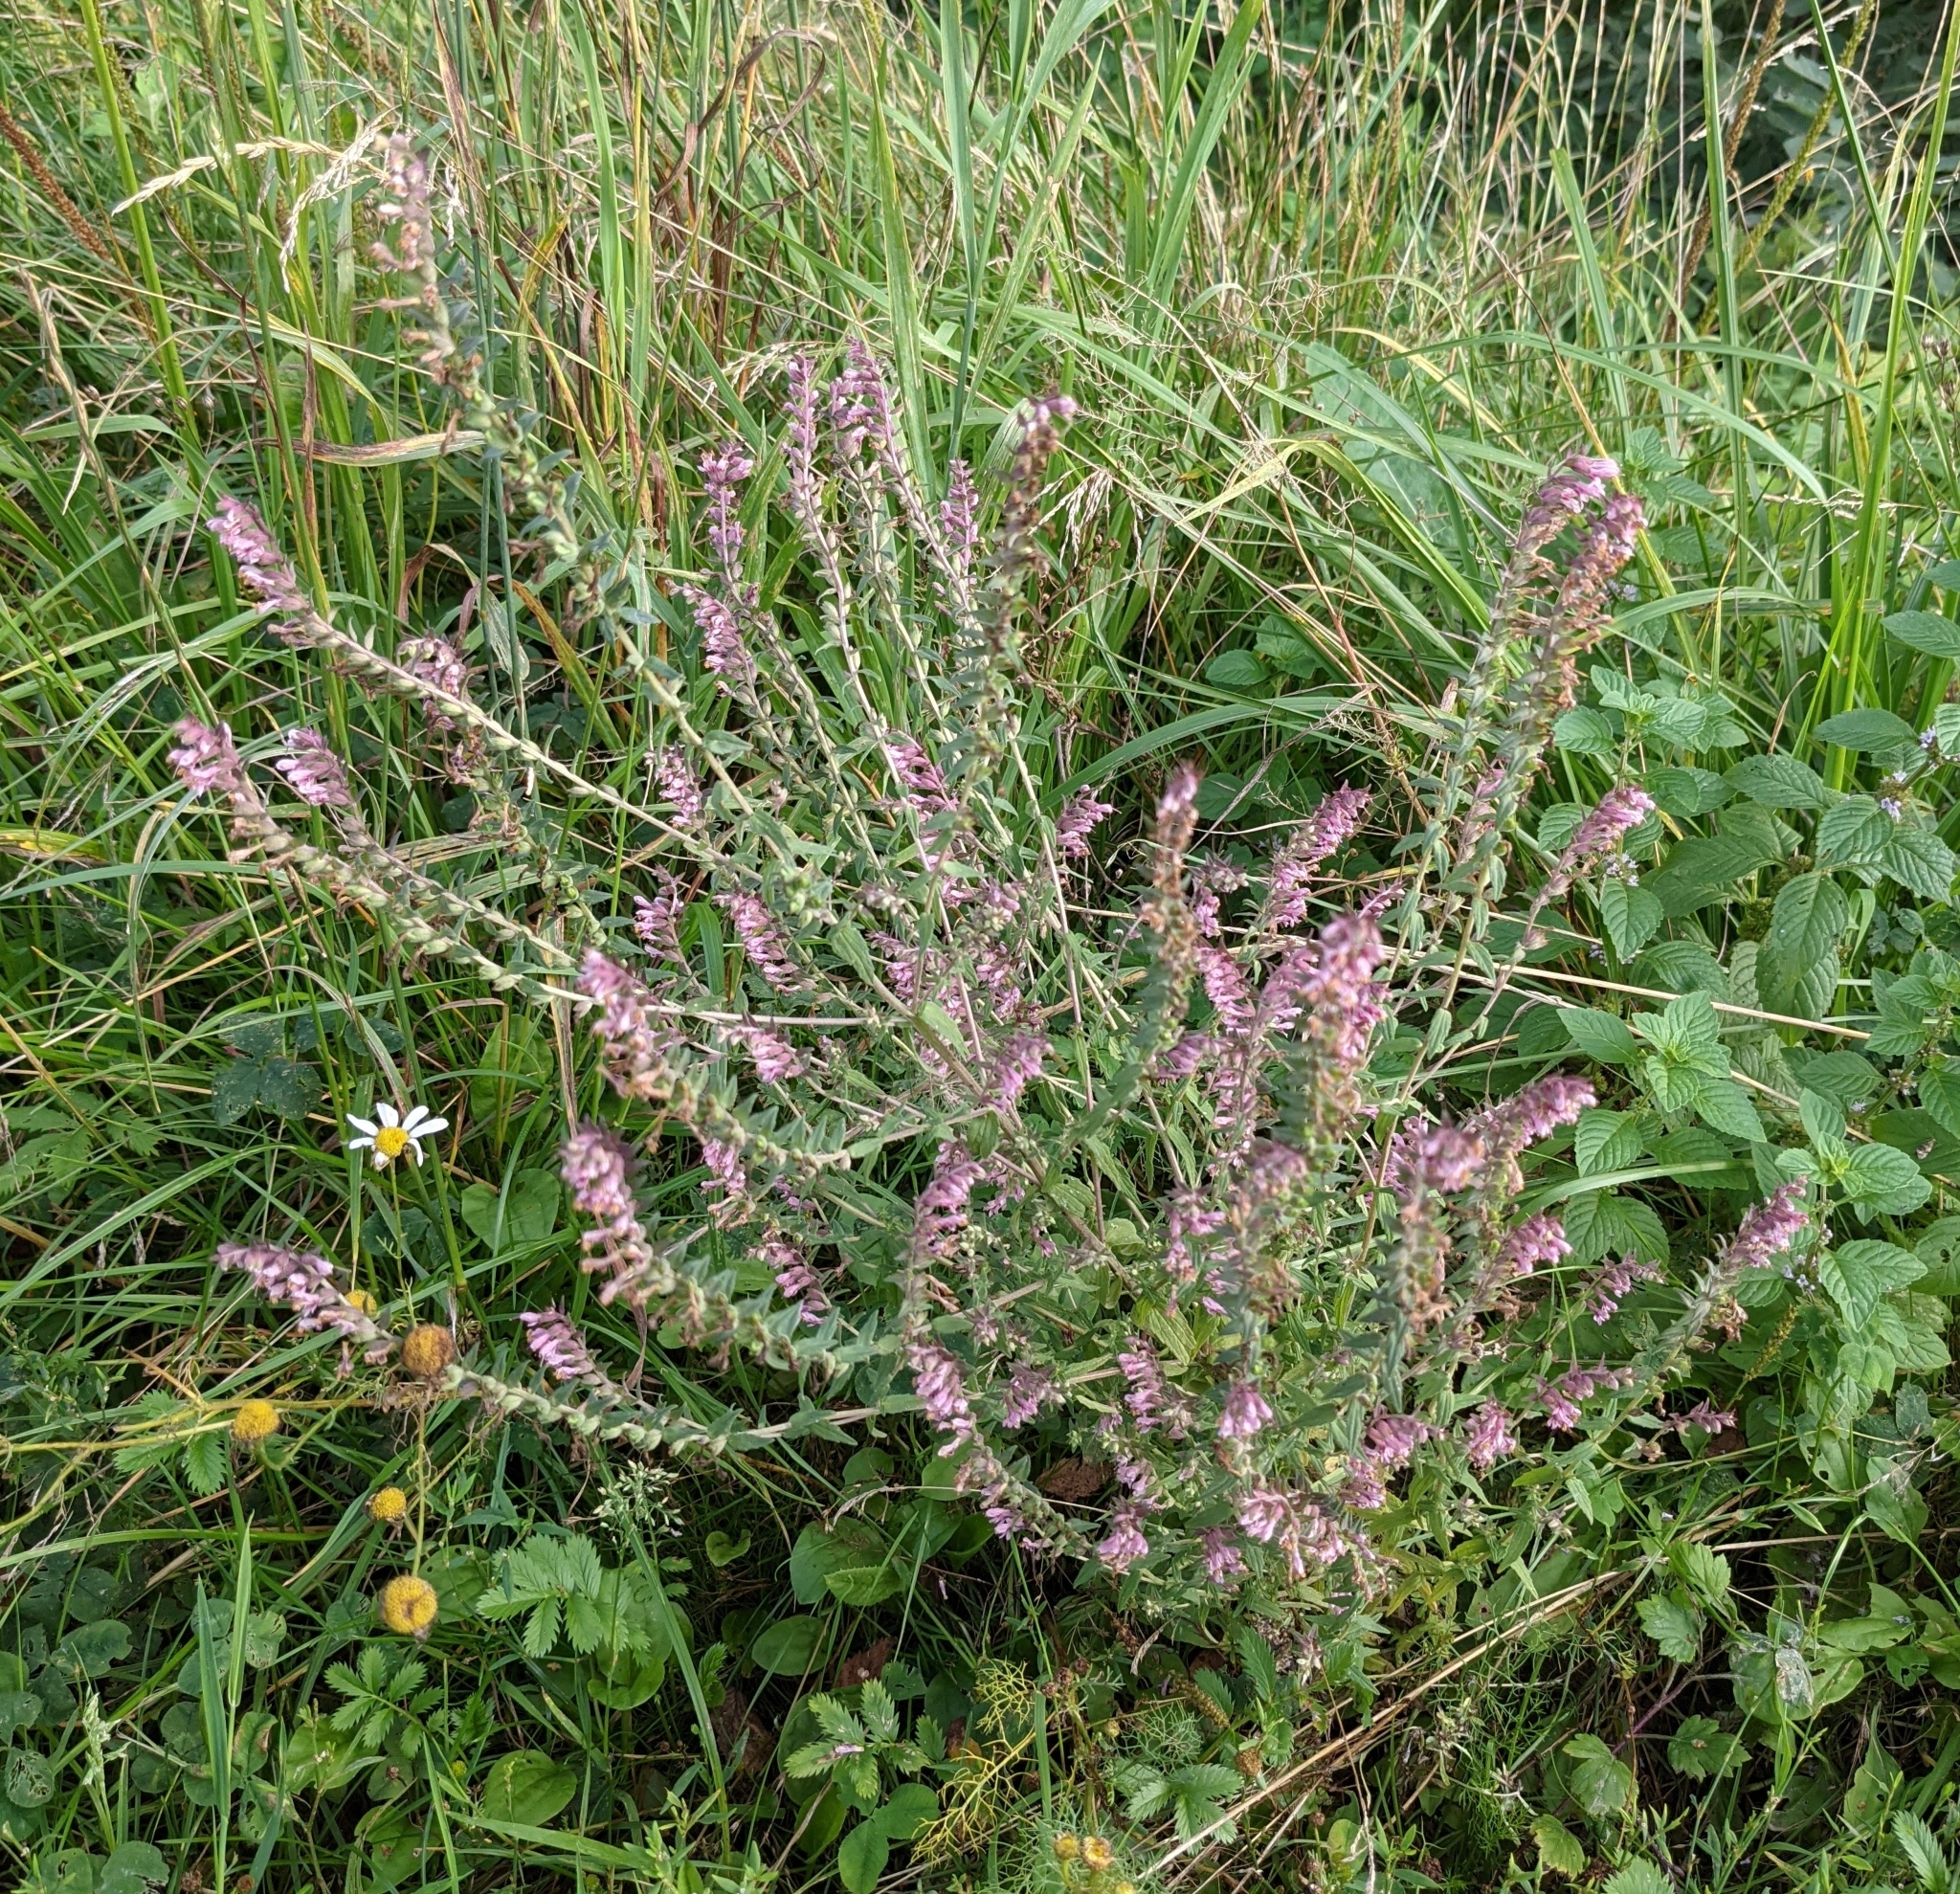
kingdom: Plantae
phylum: Tracheophyta
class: Magnoliopsida
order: Lamiales
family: Orobanchaceae
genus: Odontites
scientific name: Odontites vulgaris
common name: Broomrape
